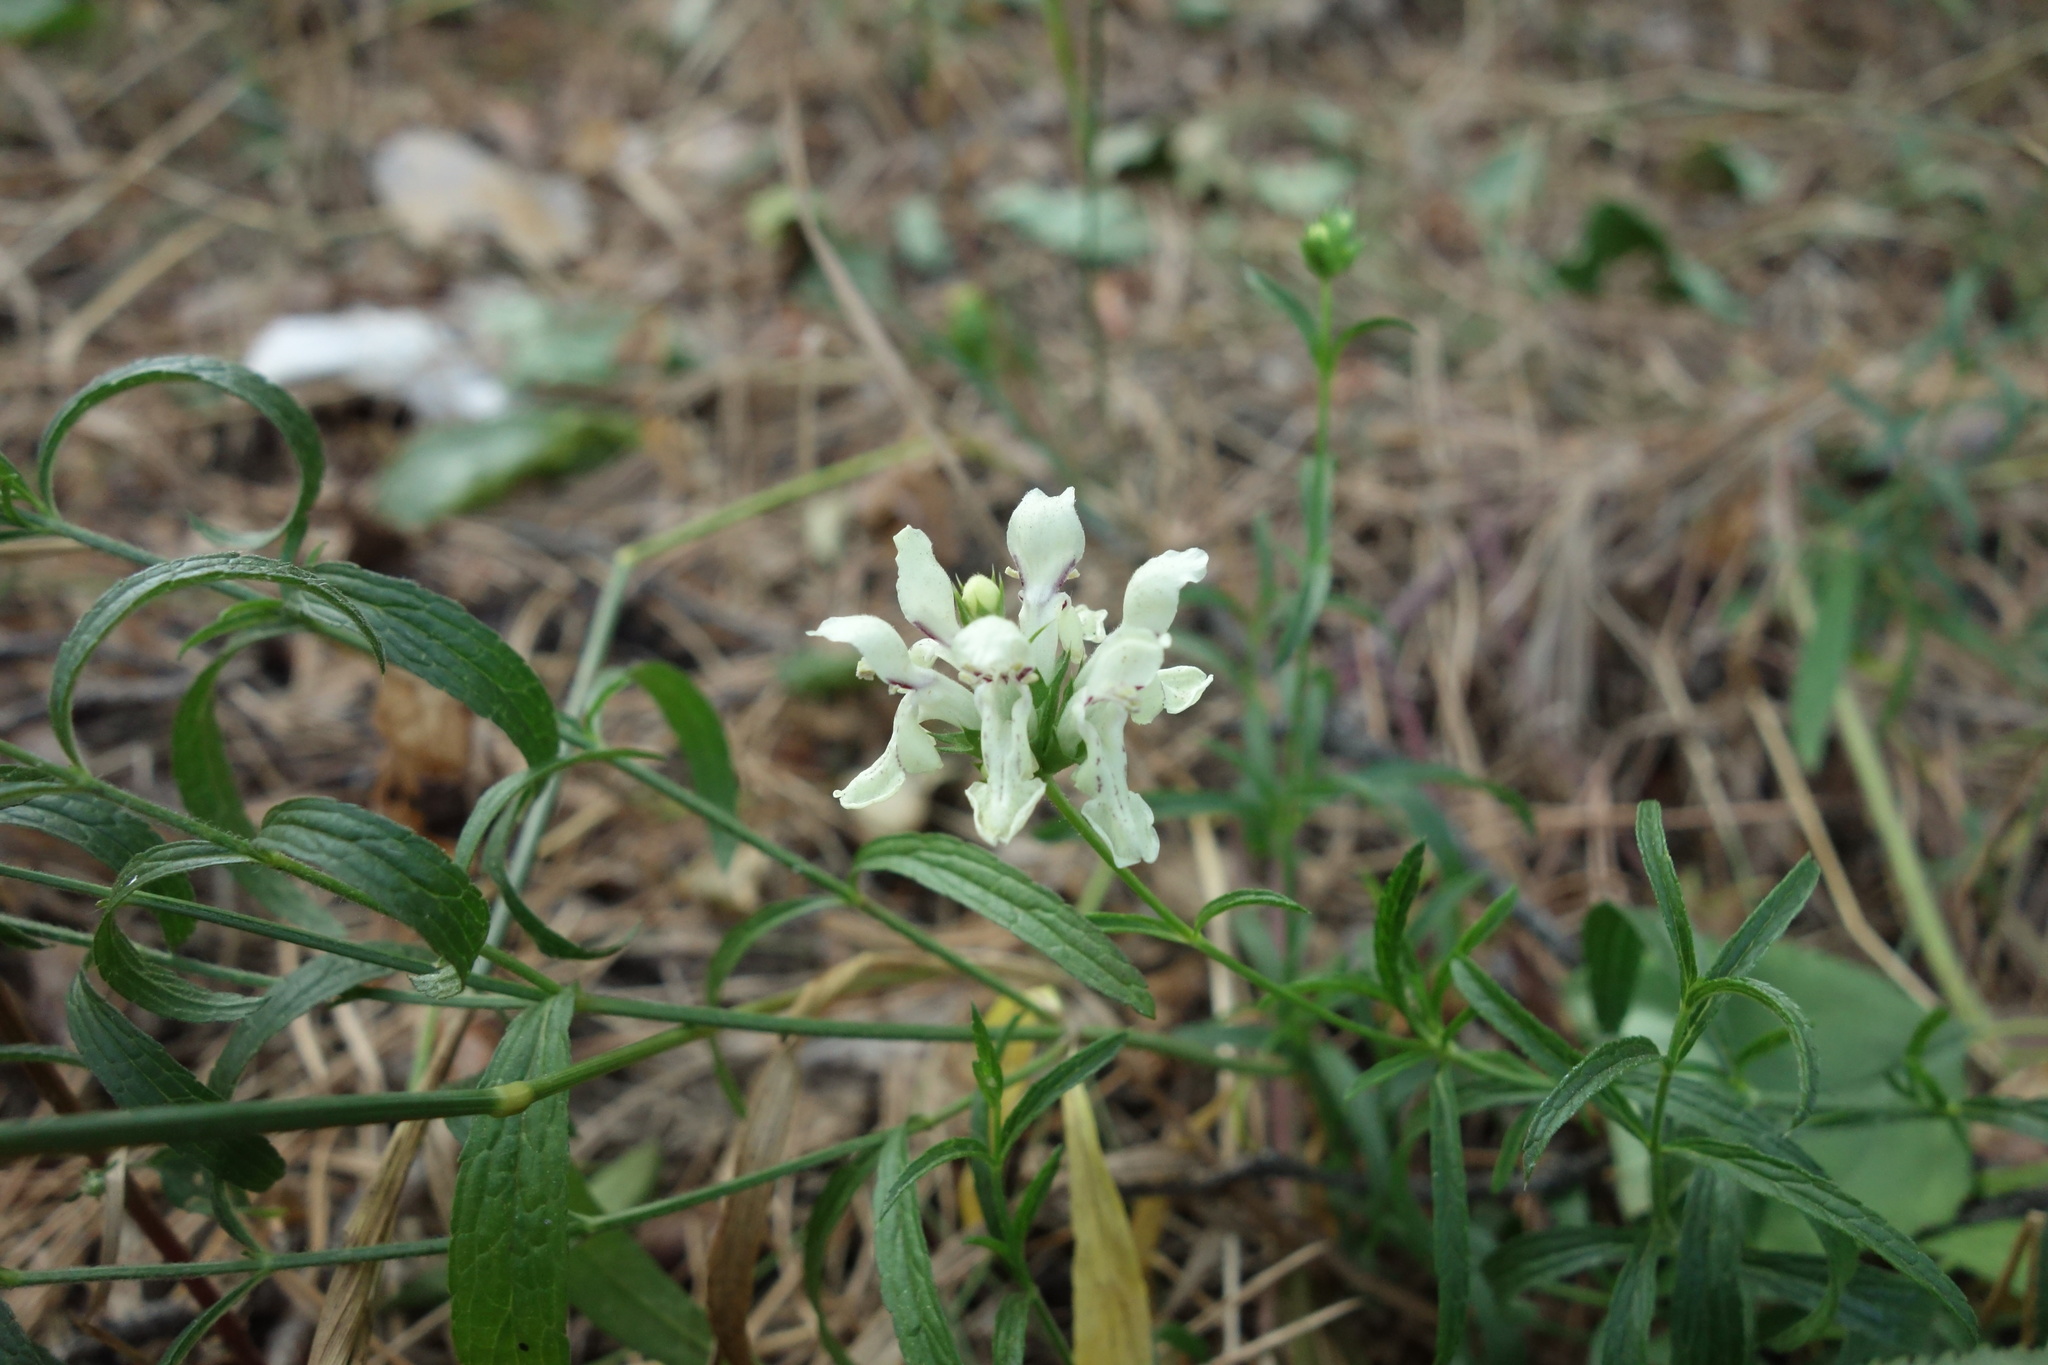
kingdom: Plantae
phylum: Tracheophyta
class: Magnoliopsida
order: Lamiales
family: Lamiaceae
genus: Stachys
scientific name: Stachys recta
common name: Perennial yellow-woundwort
